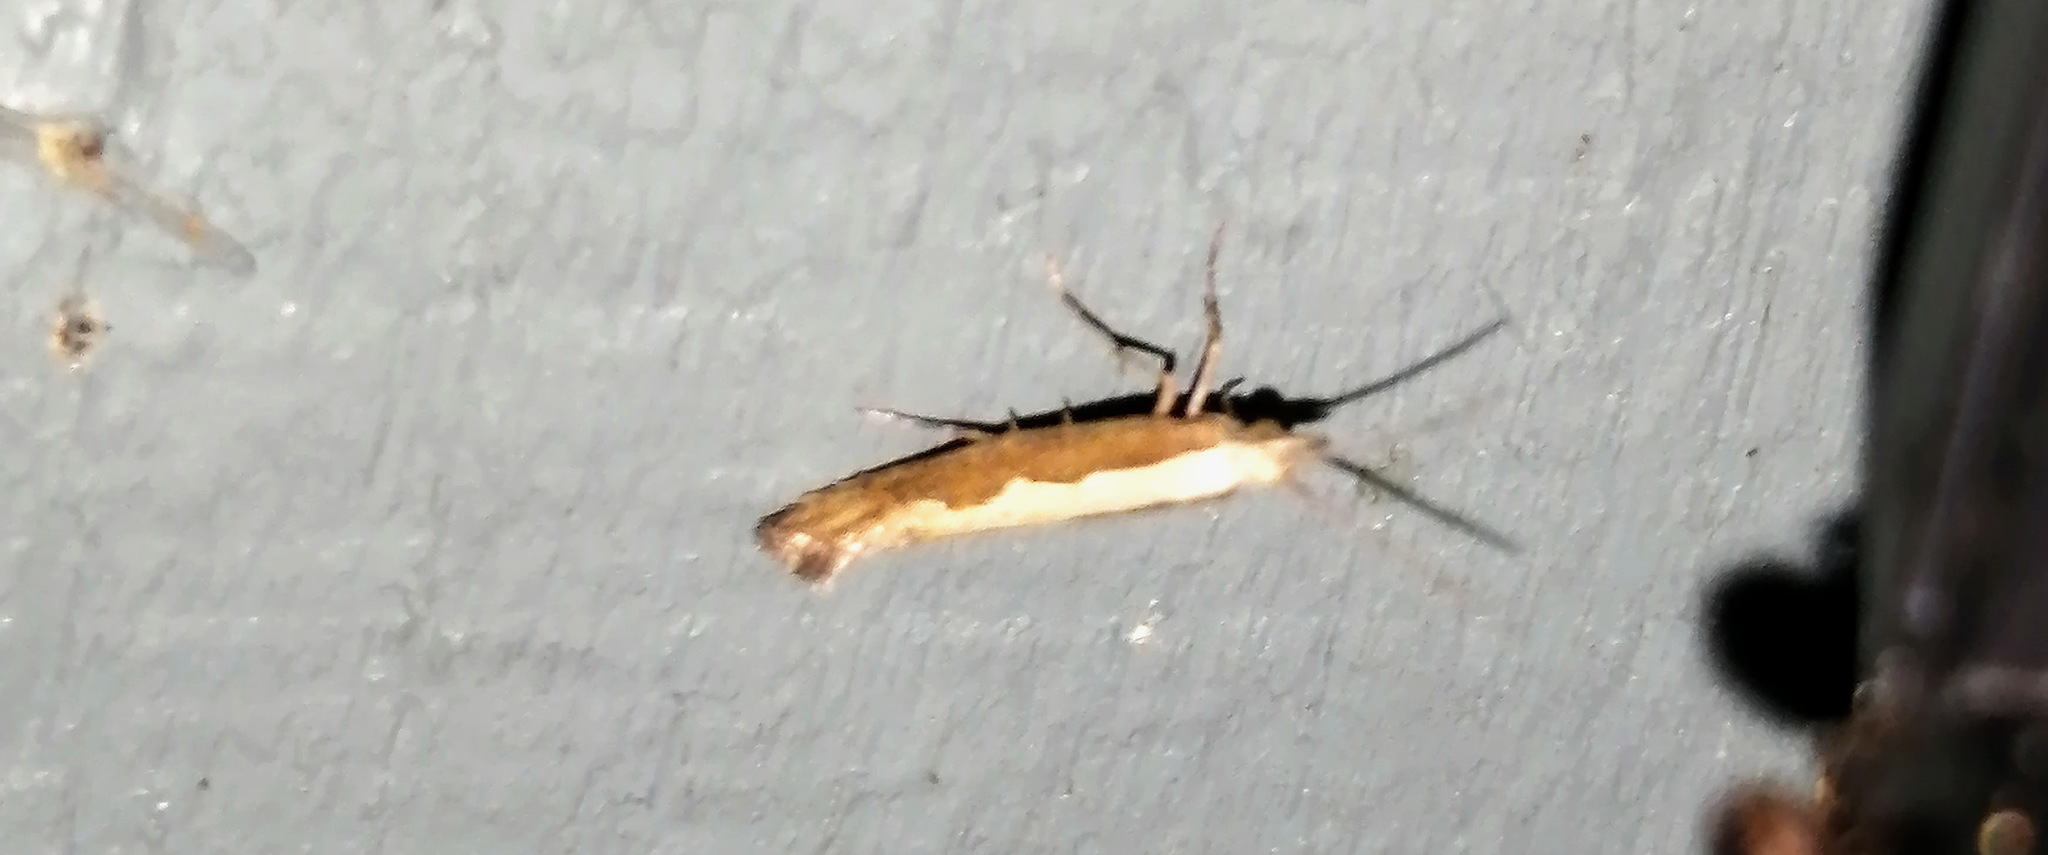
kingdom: Animalia
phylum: Arthropoda
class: Insecta
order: Lepidoptera
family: Plutellidae
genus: Plutella
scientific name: Plutella xylostella
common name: Diamond-back moth
